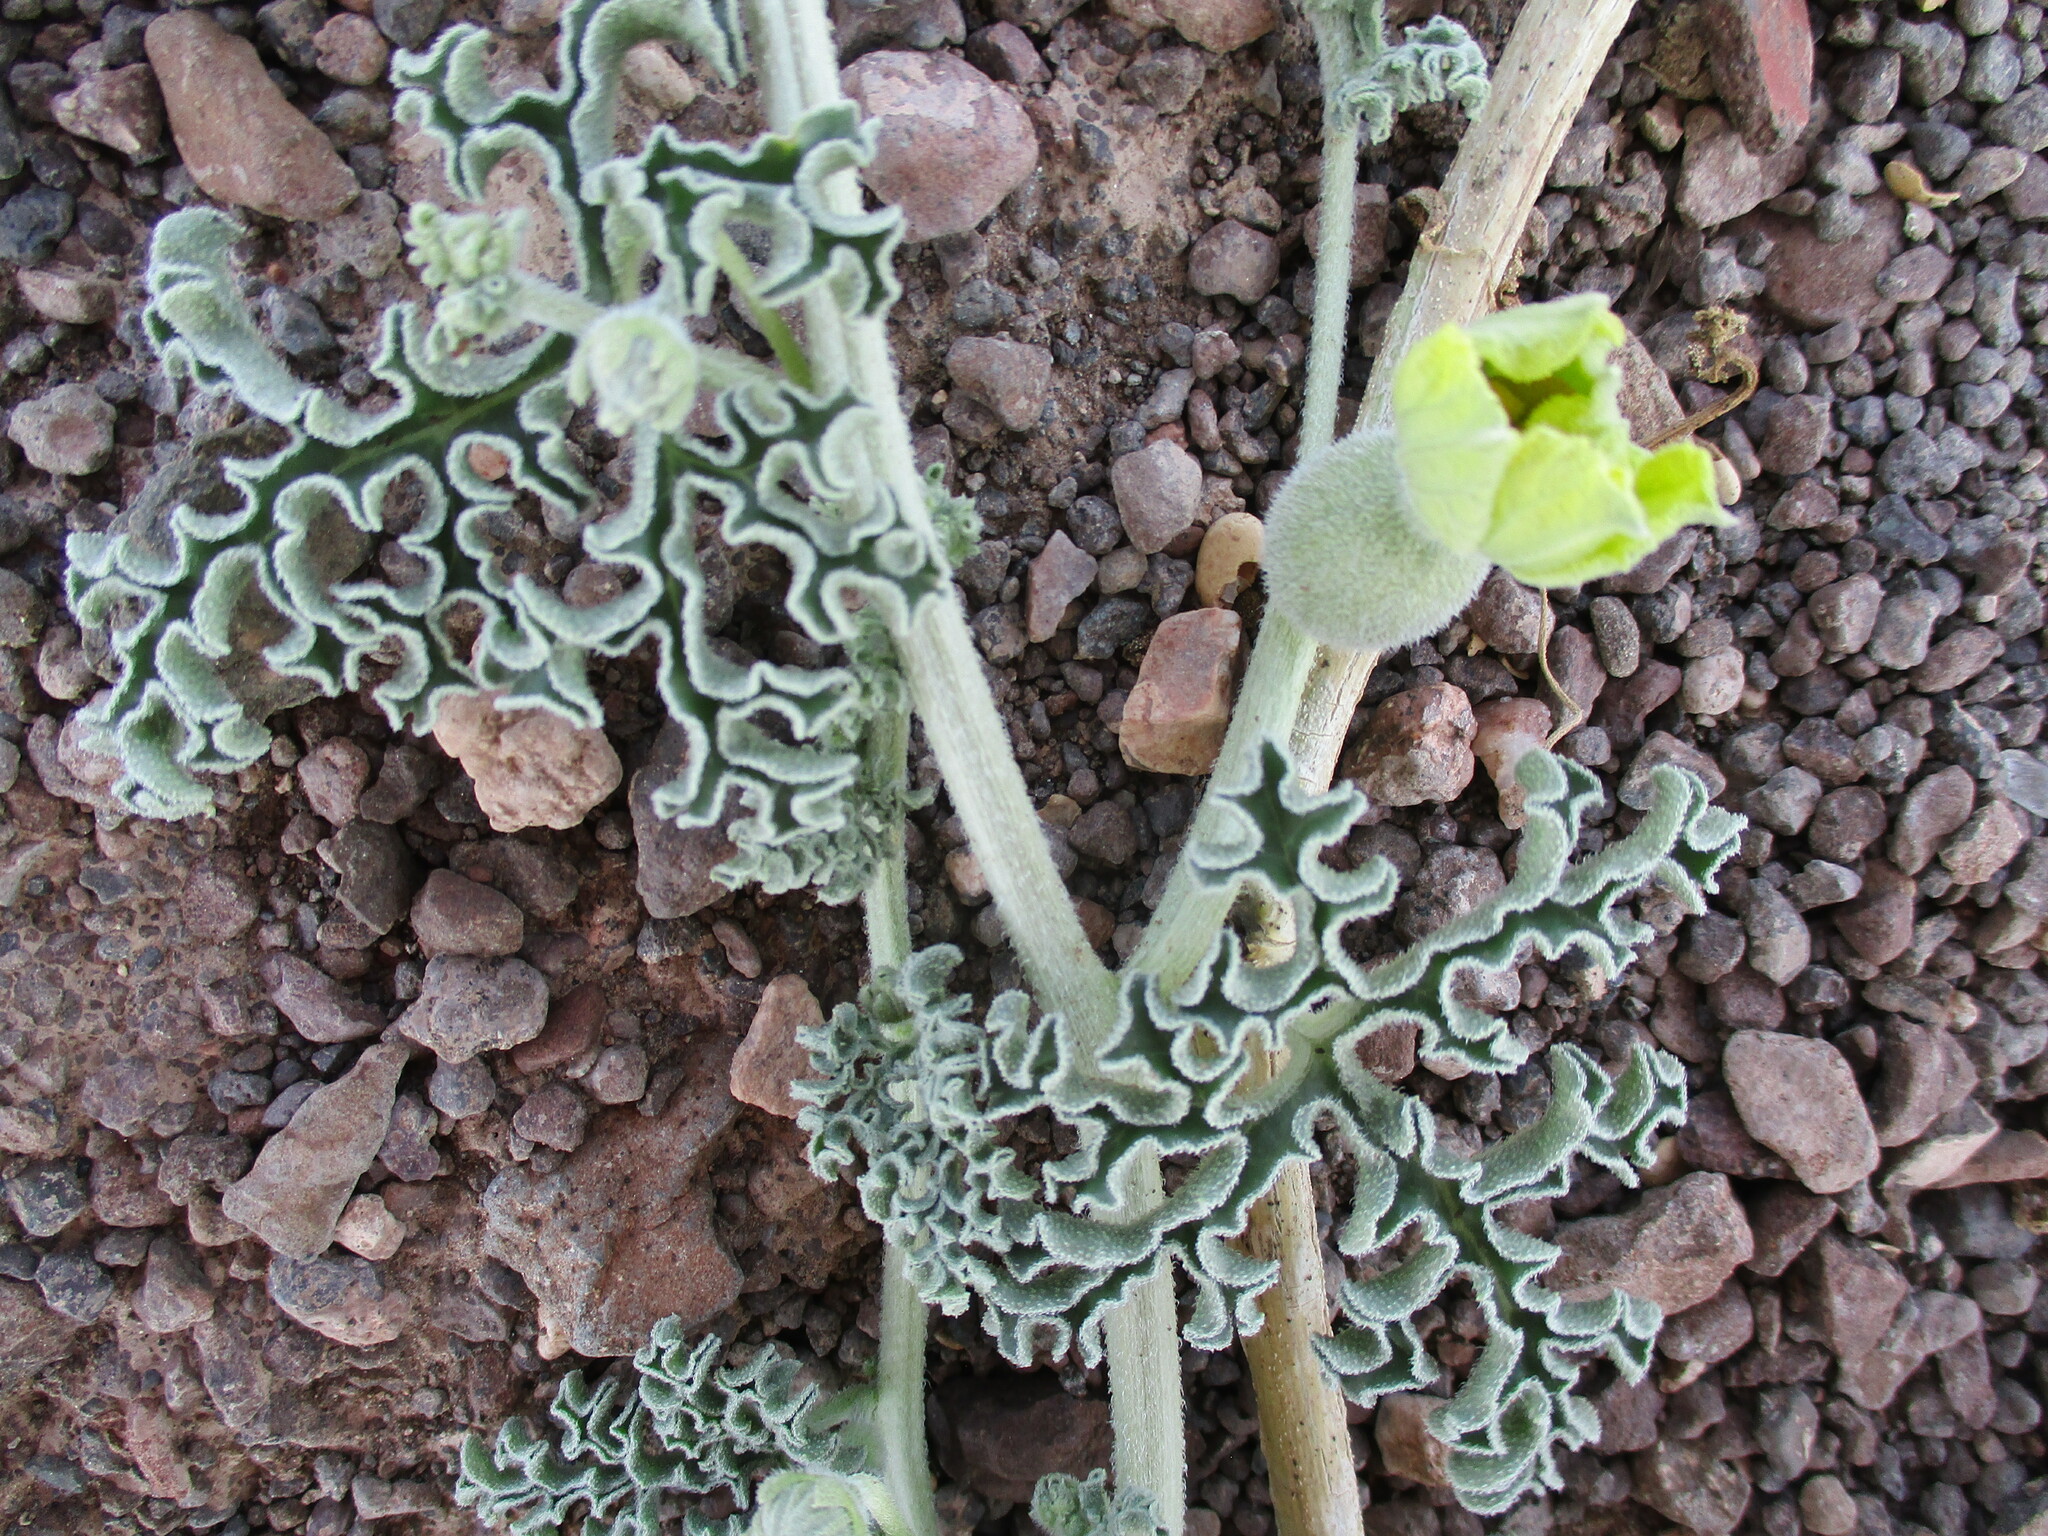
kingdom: Plantae
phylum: Tracheophyta
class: Magnoliopsida
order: Cucurbitales
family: Cucurbitaceae
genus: Citrullus
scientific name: Citrullus ecirrhosus
